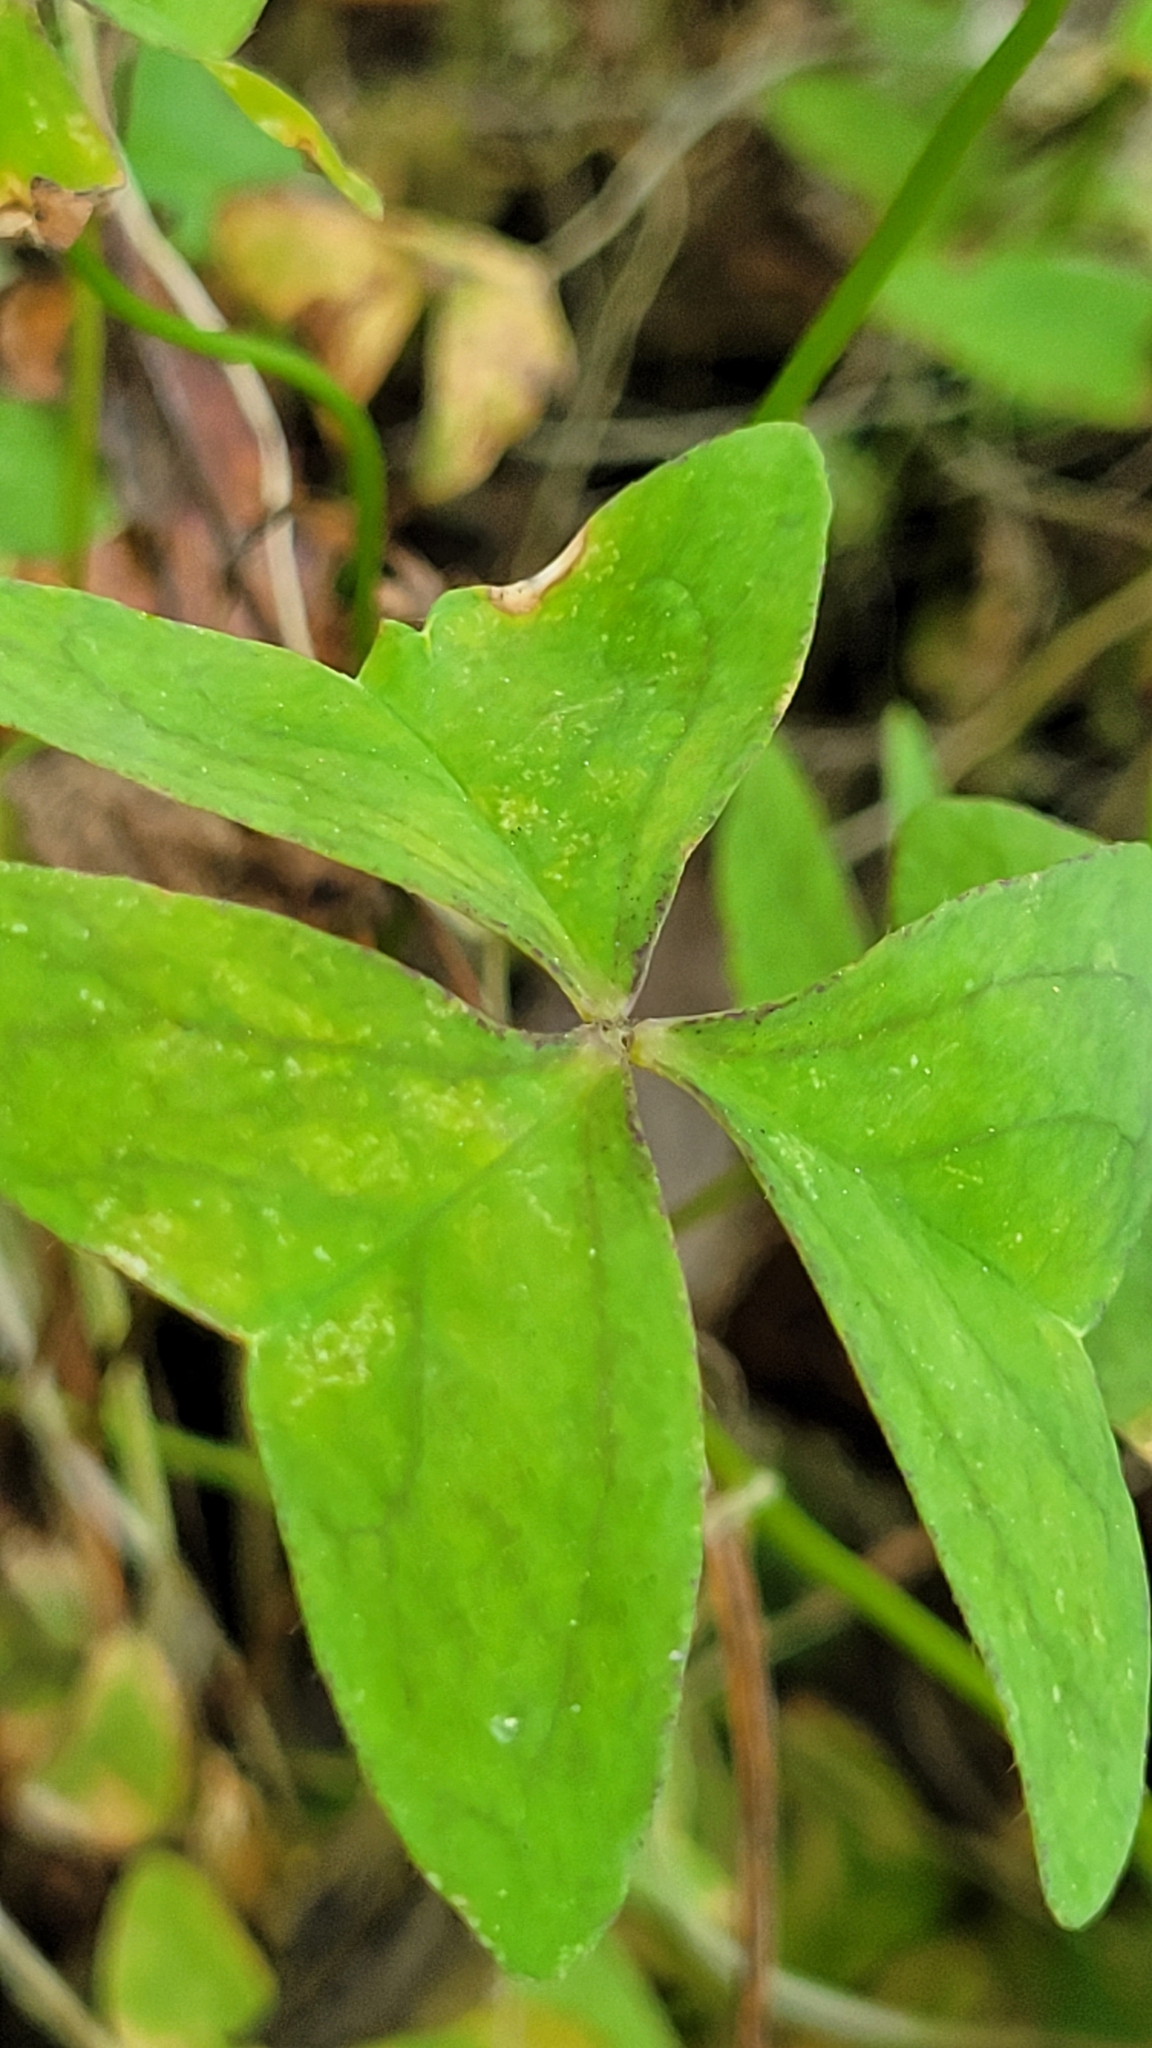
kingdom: Plantae
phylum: Tracheophyta
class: Magnoliopsida
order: Oxalidales
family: Oxalidaceae
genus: Oxalis
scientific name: Oxalis latifolia
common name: Garden pink-sorrel
